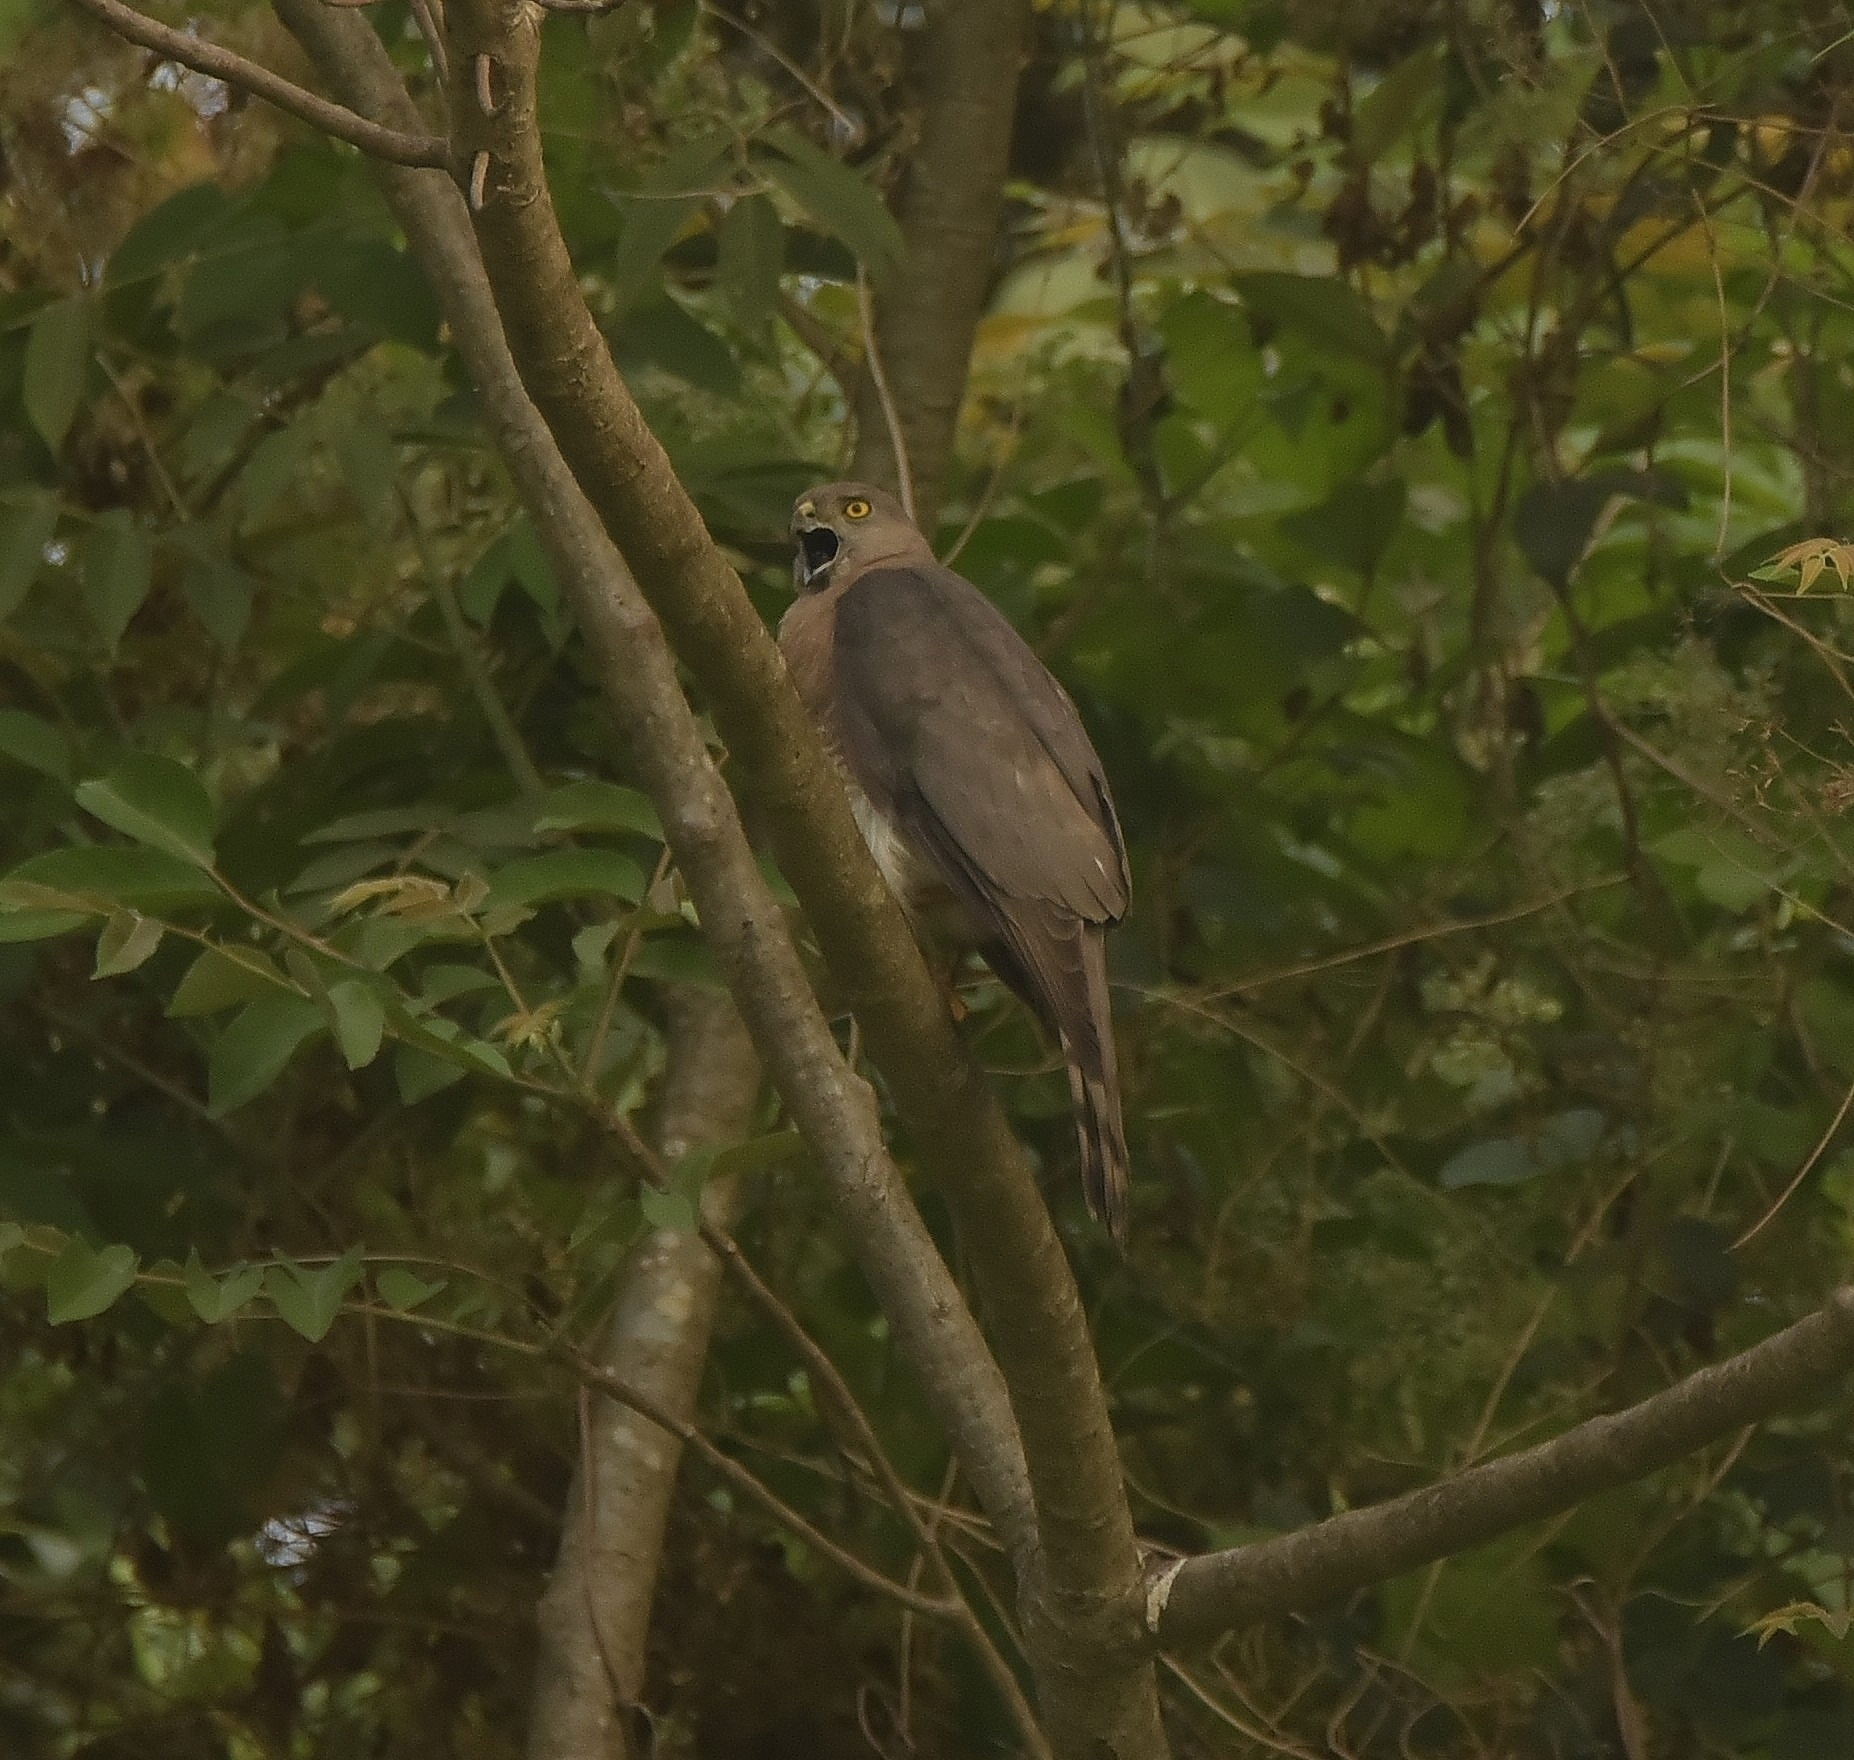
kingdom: Animalia
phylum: Chordata
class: Aves
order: Accipitriformes
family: Accipitridae
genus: Accipiter
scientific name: Accipiter badius
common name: Shikra
